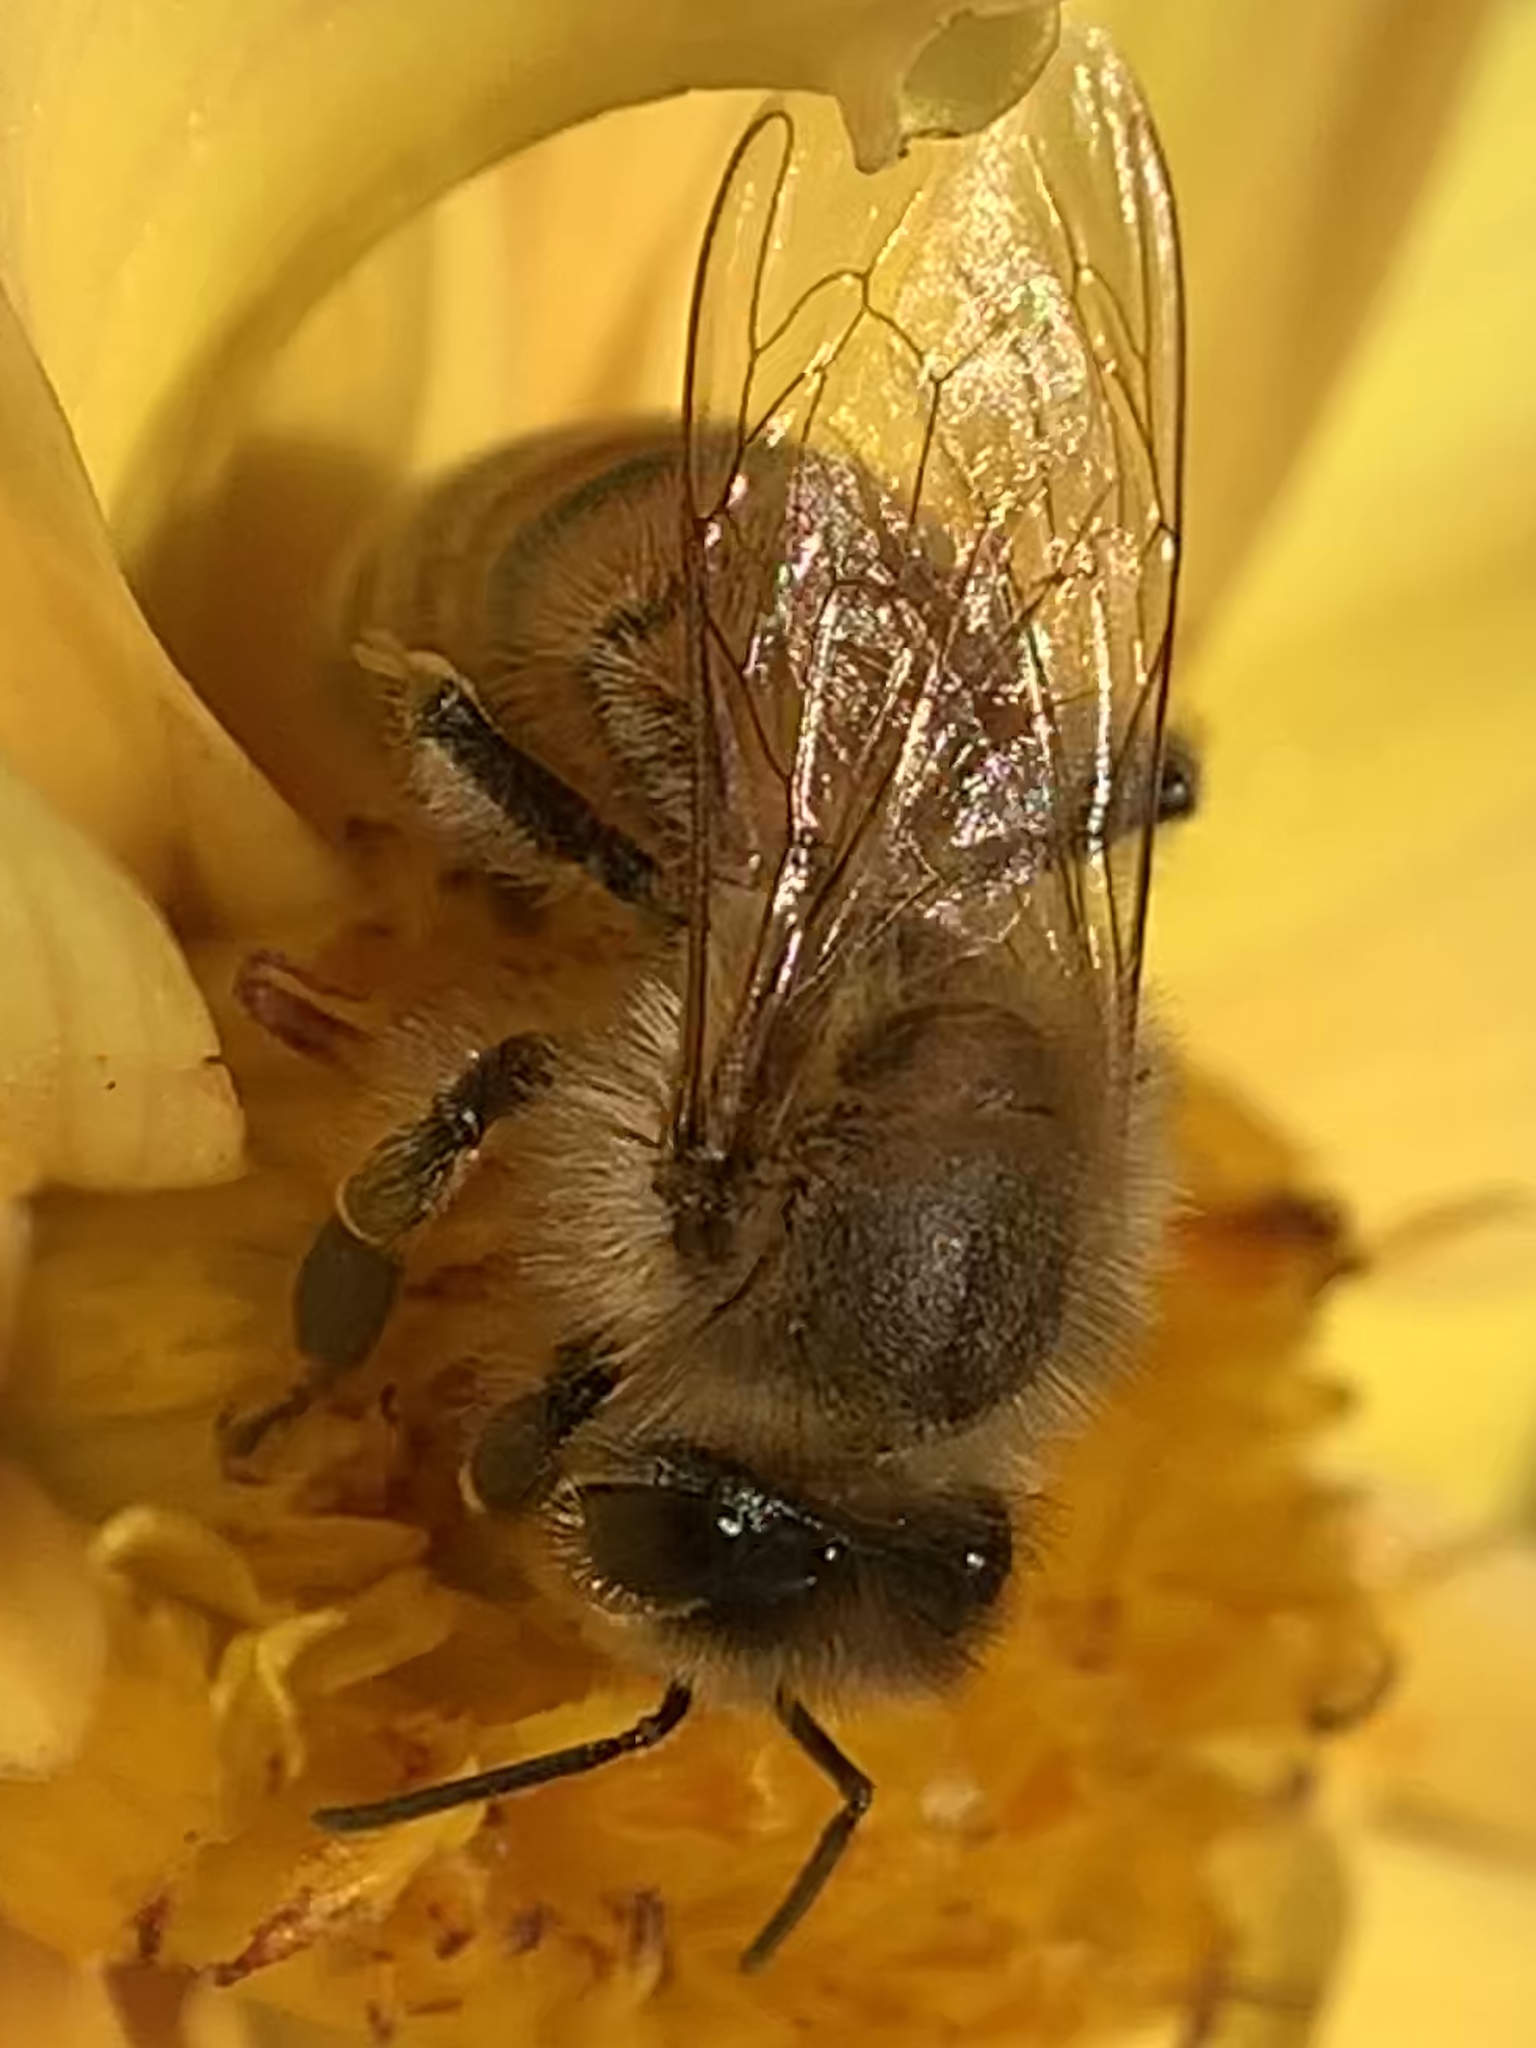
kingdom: Animalia
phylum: Arthropoda
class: Insecta
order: Hymenoptera
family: Apidae
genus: Apis
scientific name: Apis mellifera
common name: Honey bee
